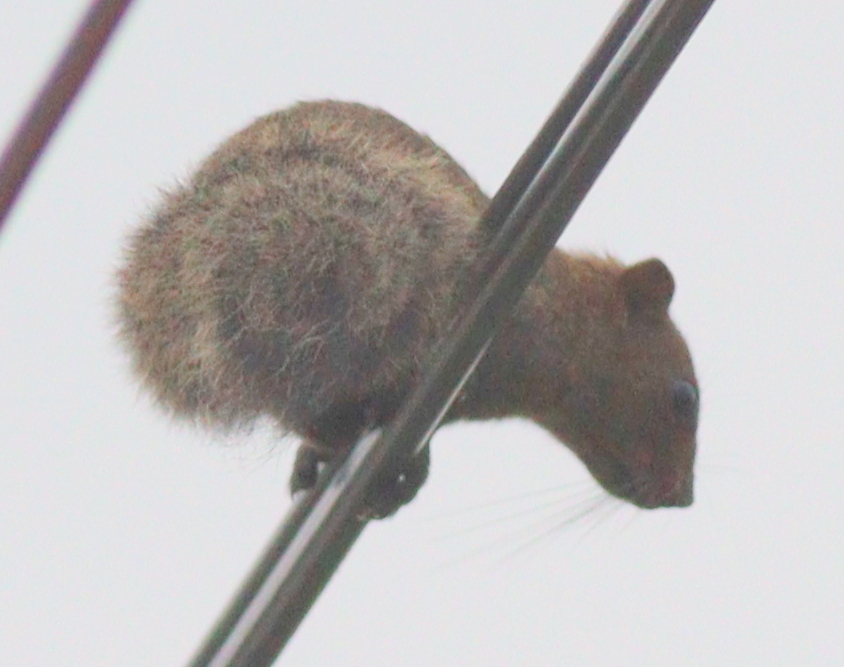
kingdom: Animalia
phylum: Chordata
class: Mammalia
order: Rodentia
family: Sciuridae
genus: Callosciurus
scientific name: Callosciurus erythraeus
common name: Pallas's squirrel
